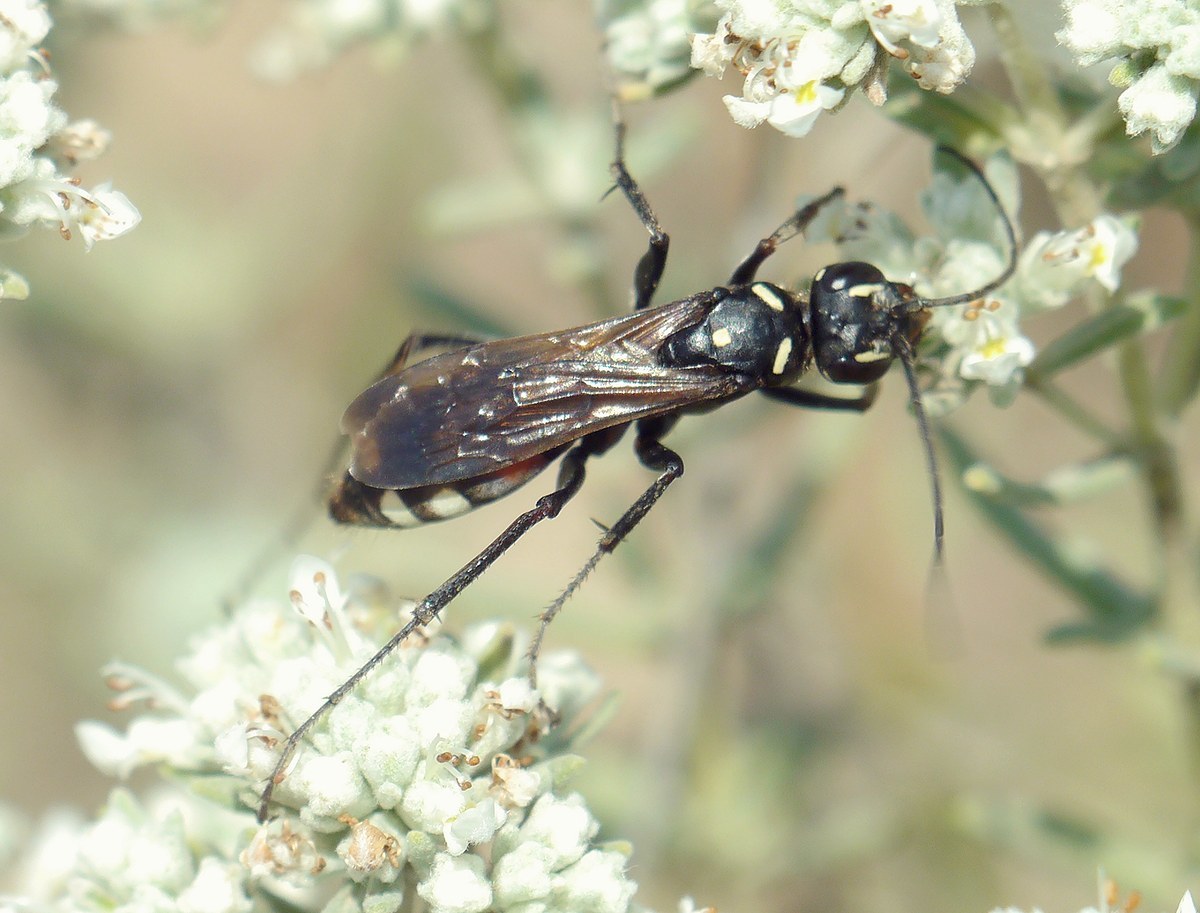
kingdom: Animalia
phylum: Arthropoda
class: Insecta
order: Hymenoptera
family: Pompilidae
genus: Cryptocheilus
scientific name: Cryptocheilus egregius
